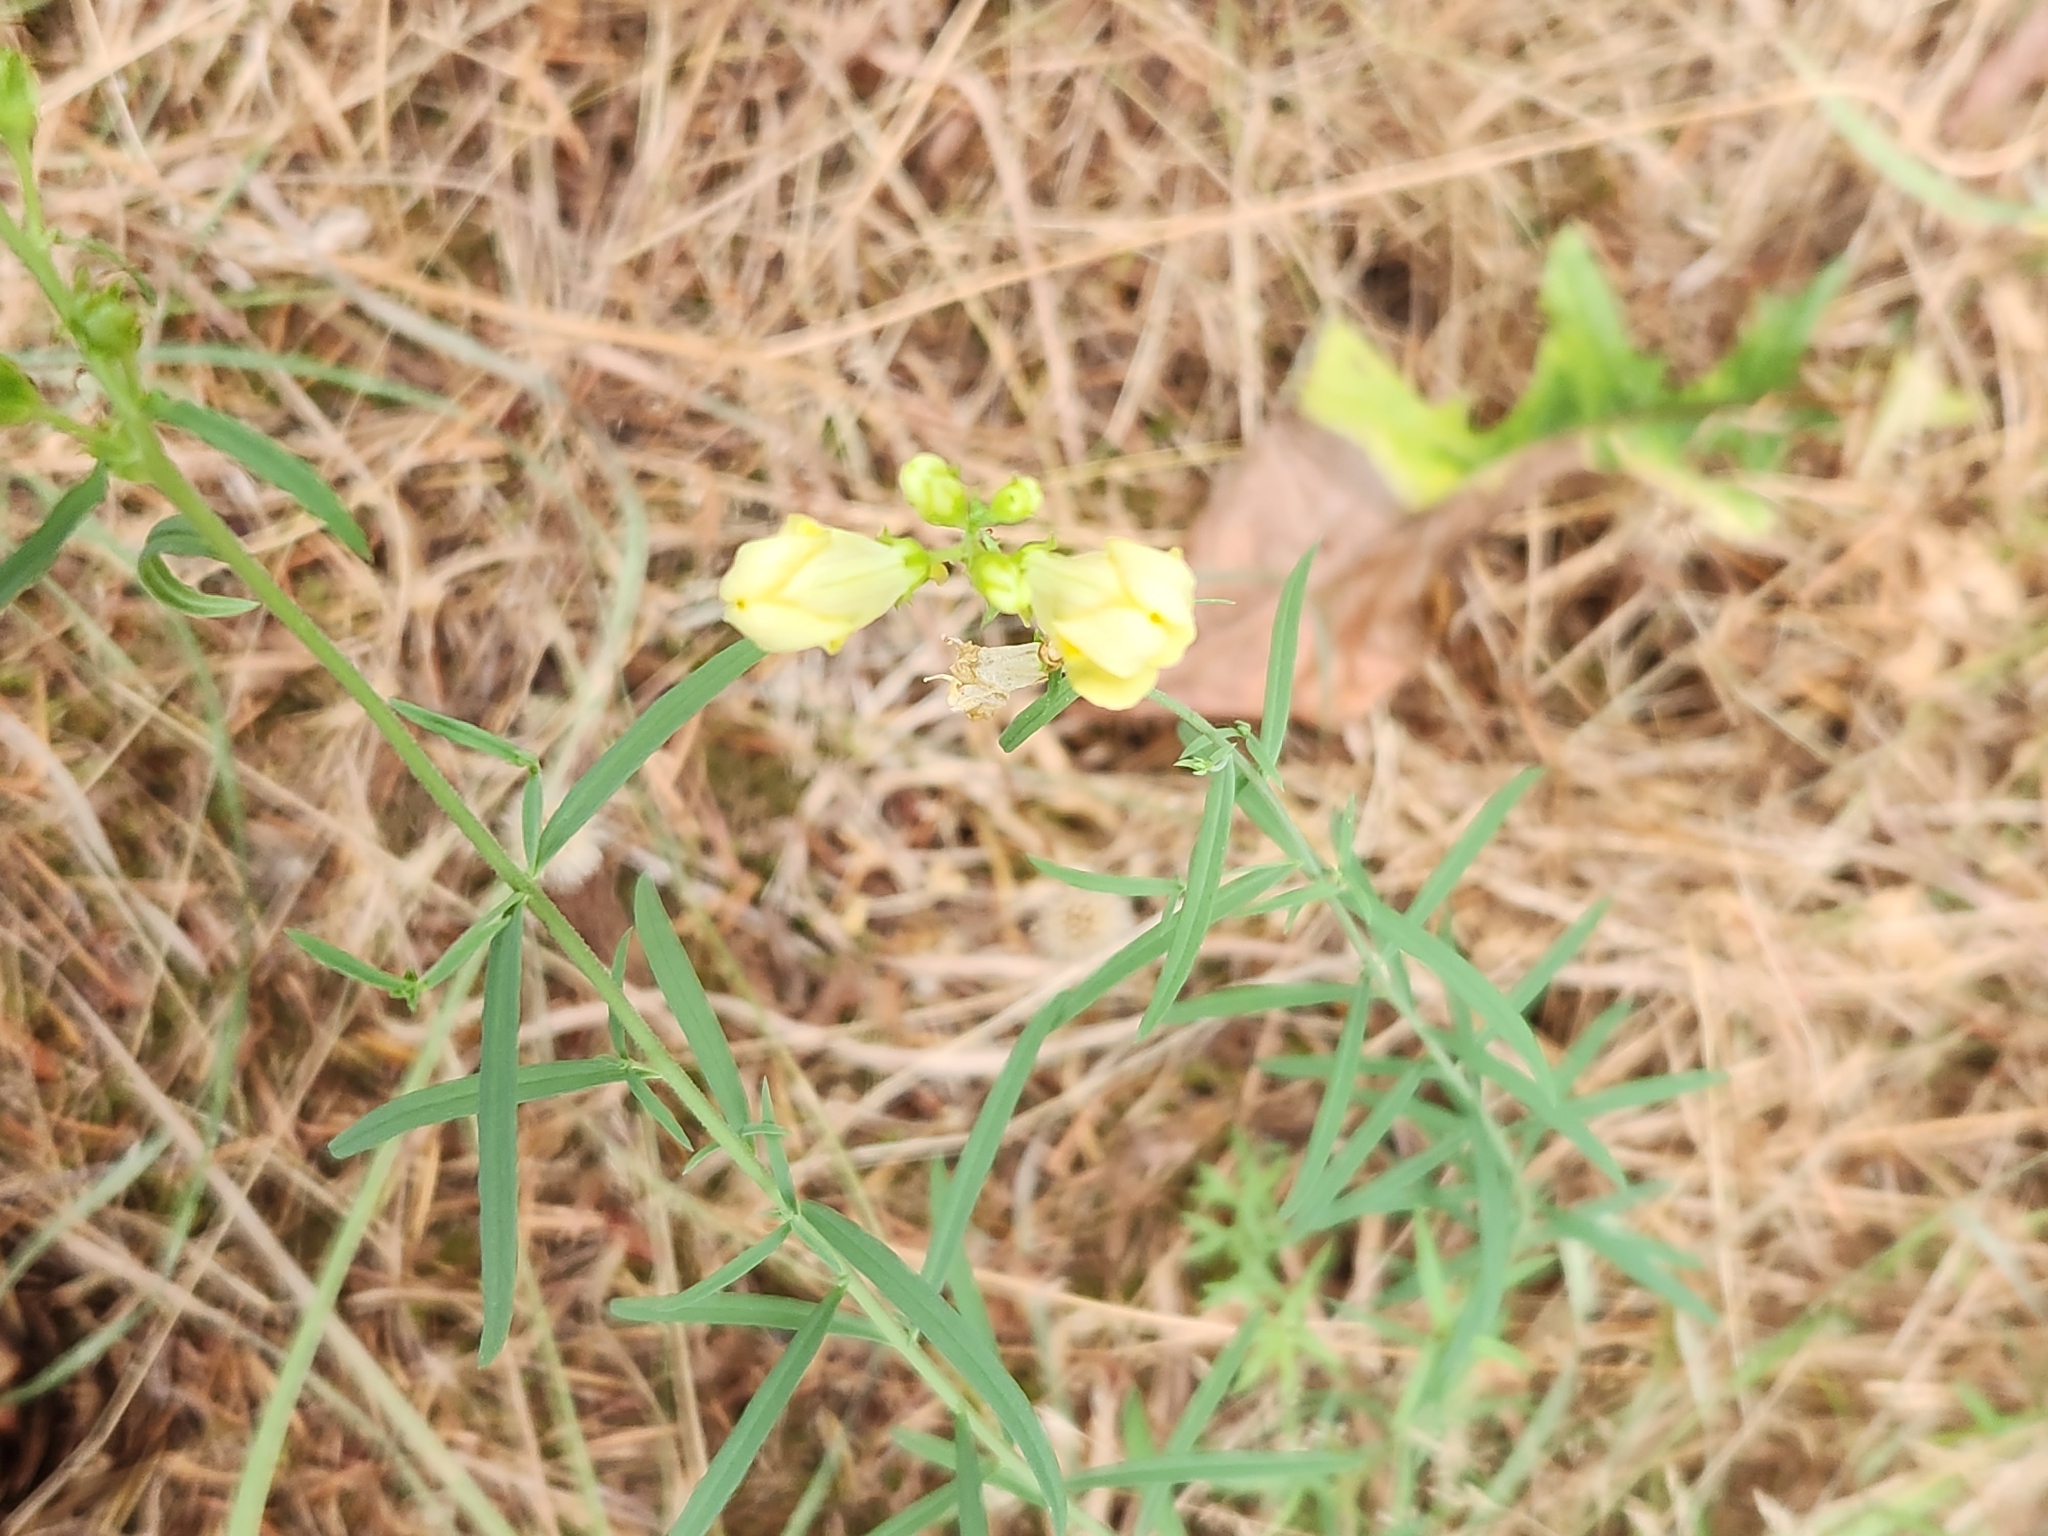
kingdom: Plantae
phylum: Tracheophyta
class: Magnoliopsida
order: Lamiales
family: Plantaginaceae
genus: Linaria
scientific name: Linaria vulgaris
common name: Butter and eggs
